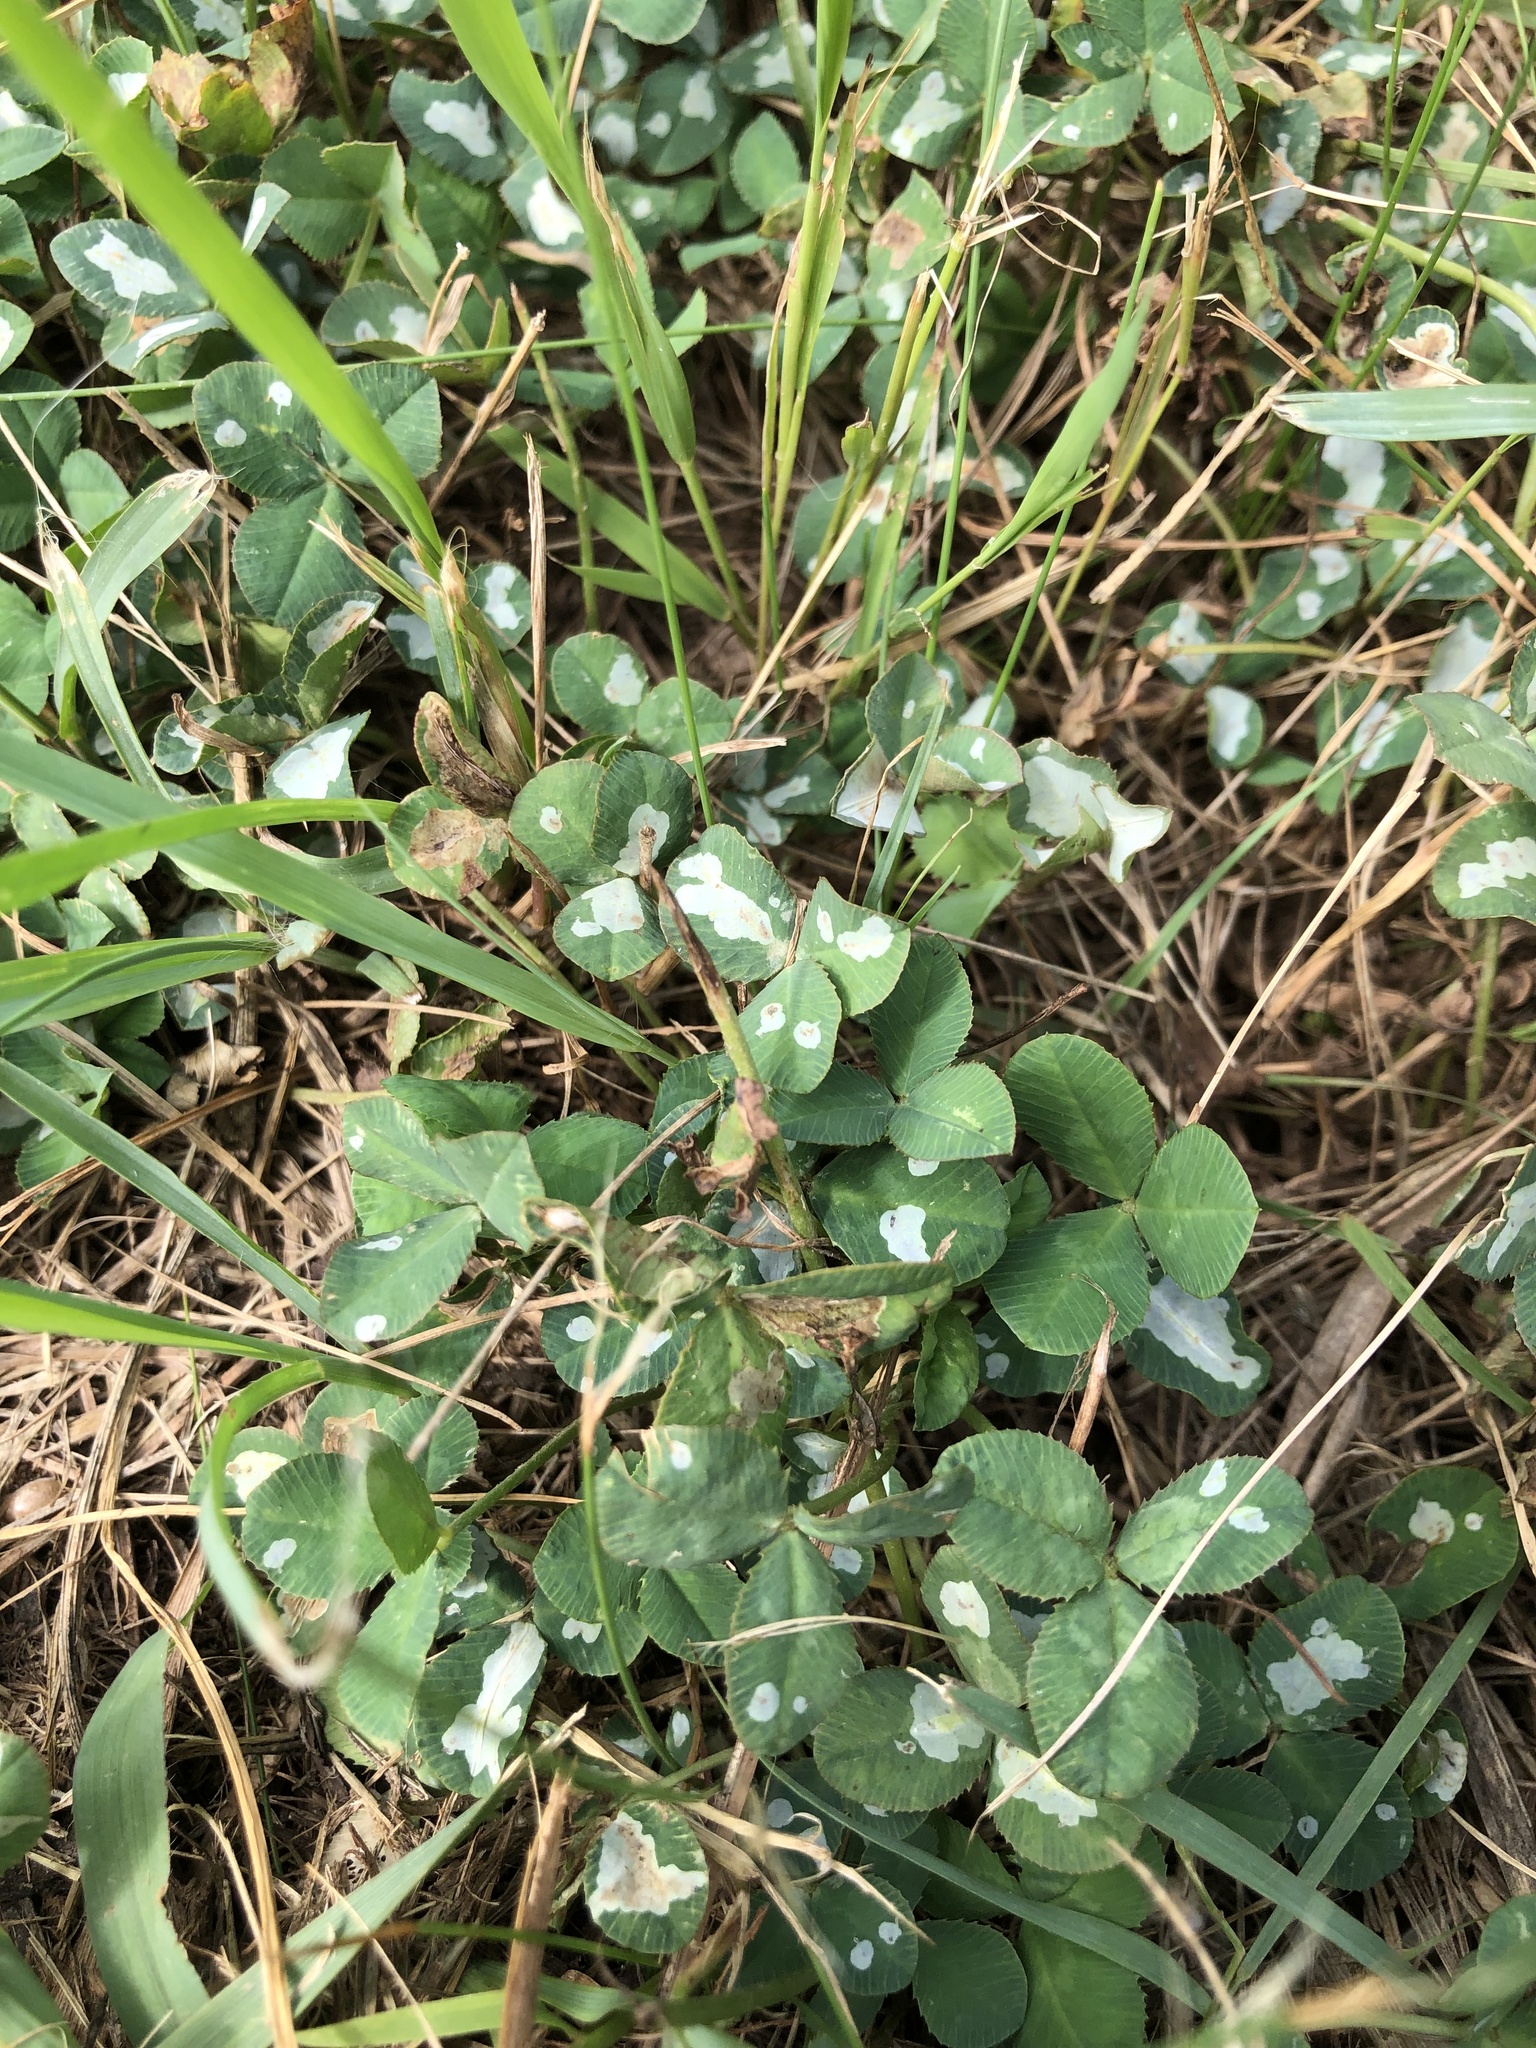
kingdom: Plantae
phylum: Tracheophyta
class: Magnoliopsida
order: Fabales
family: Fabaceae
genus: Trifolium
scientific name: Trifolium repens
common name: White clover
